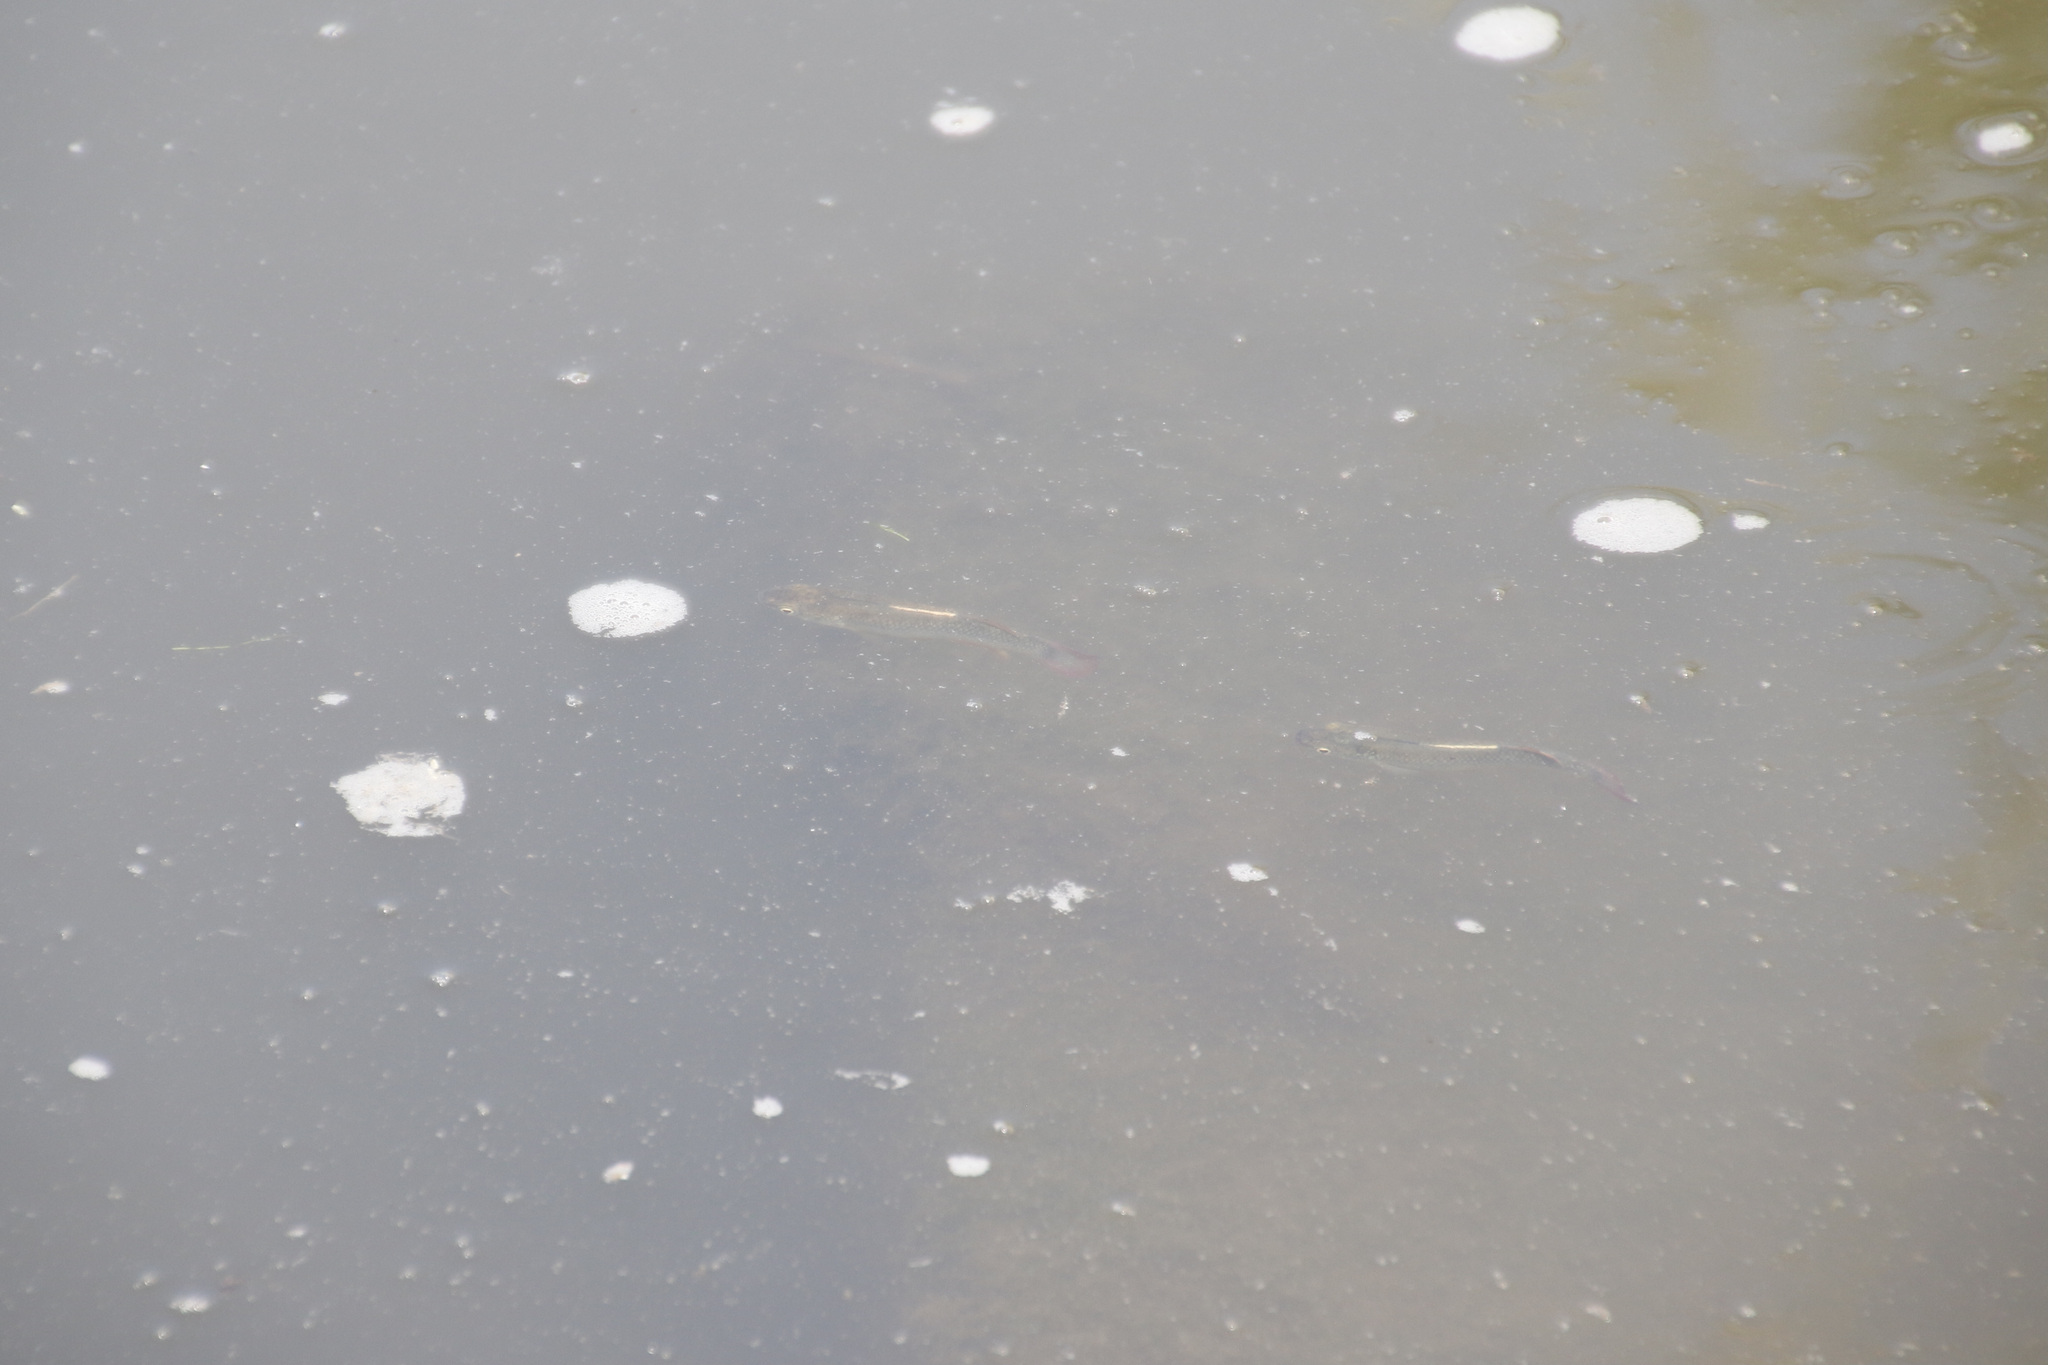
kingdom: Animalia
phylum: Chordata
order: Cyprinodontiformes
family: Fundulidae
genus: Fundulus
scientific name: Fundulus sciadicus
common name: Plains topminnow
